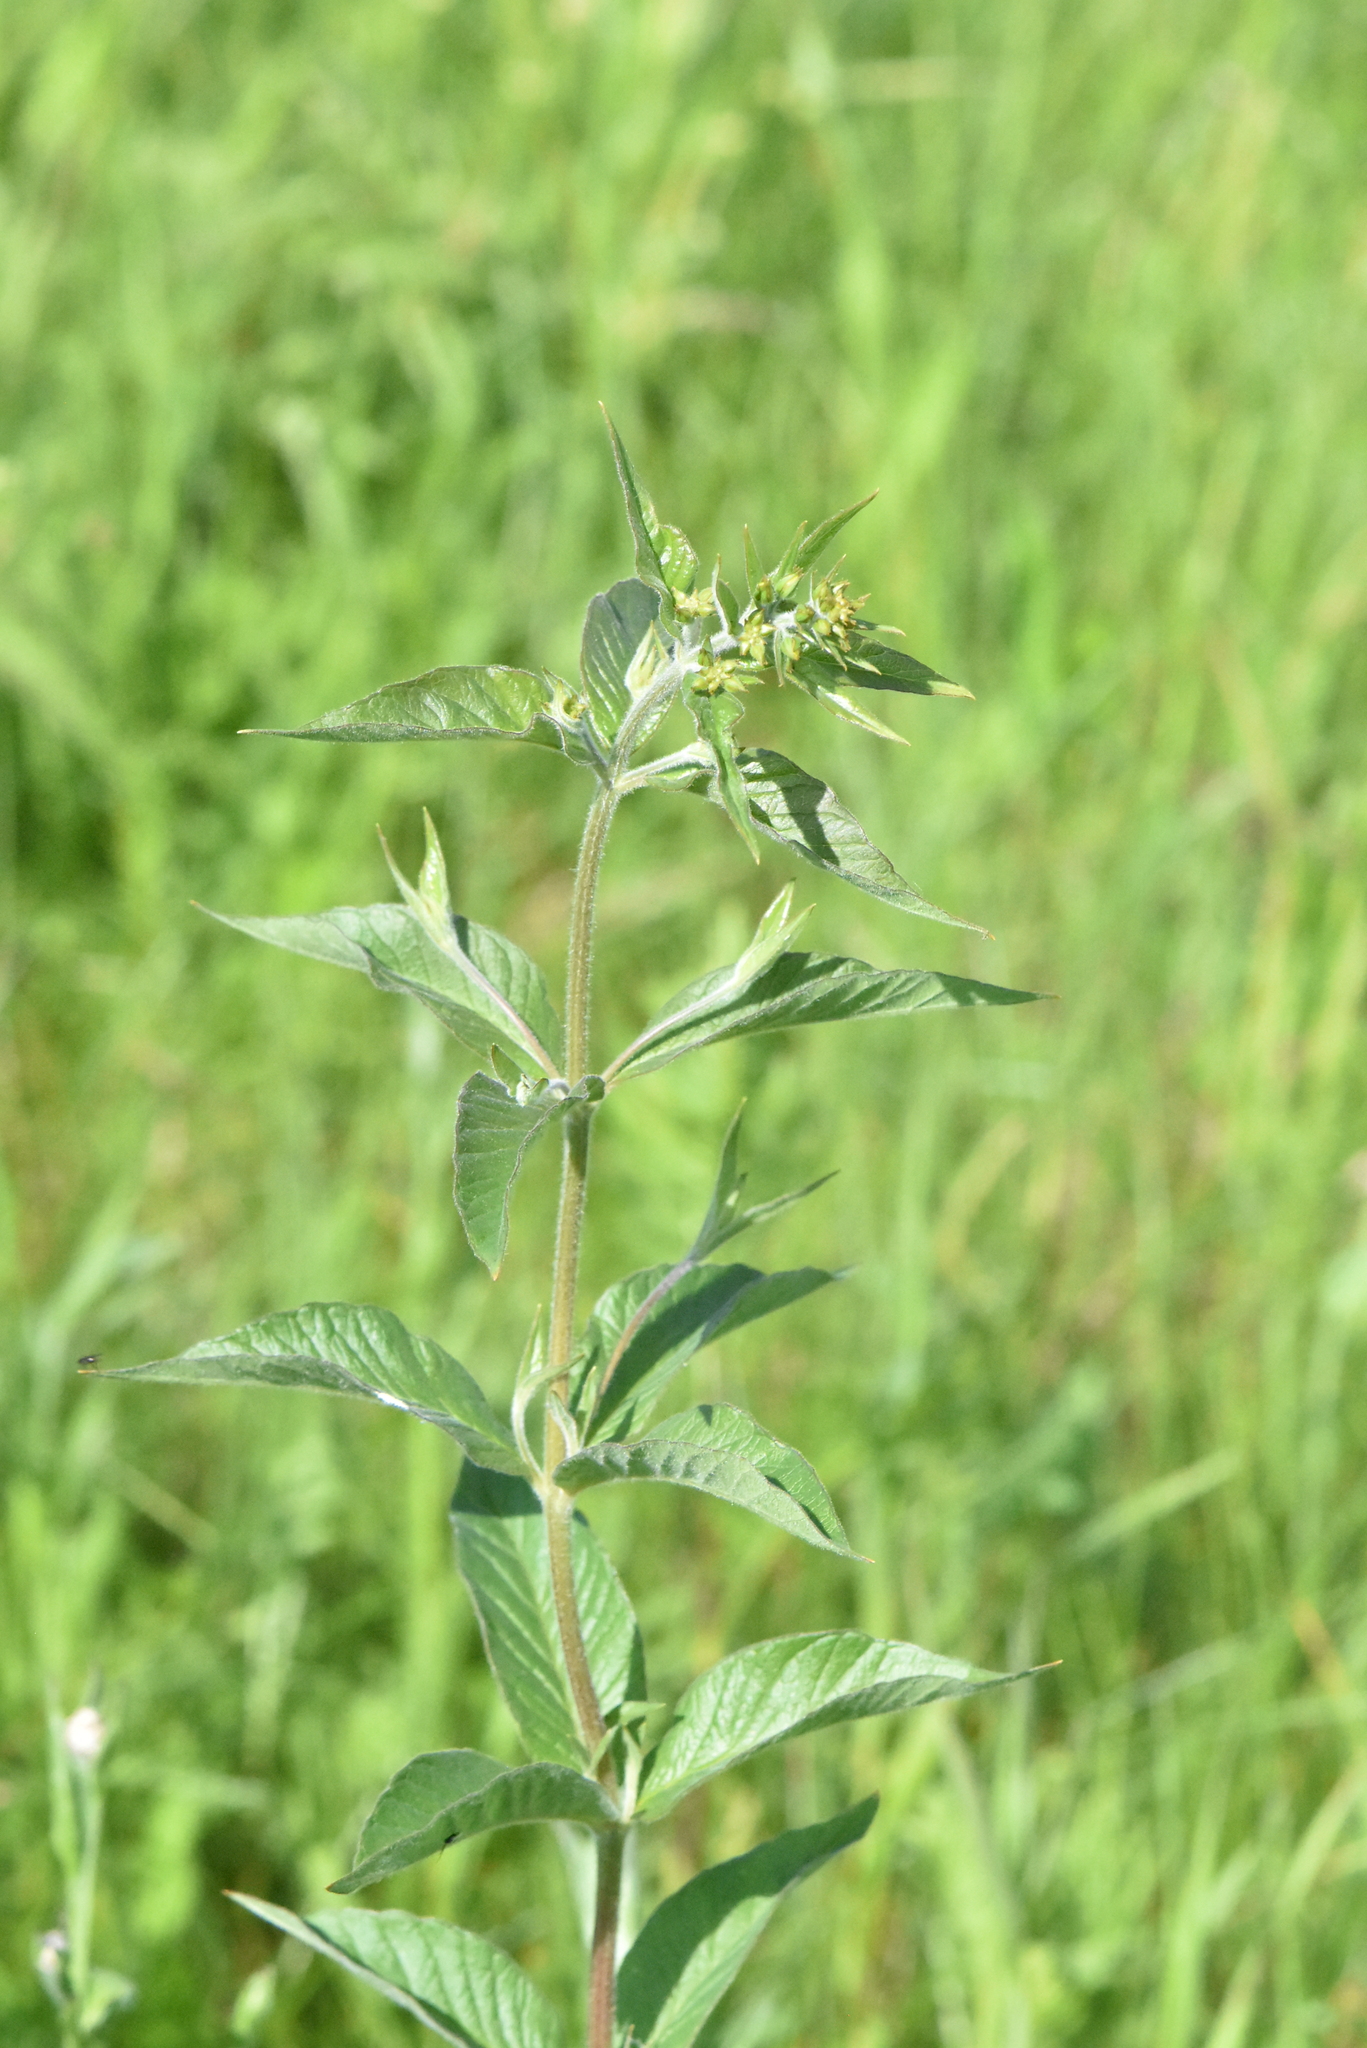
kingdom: Plantae
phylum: Tracheophyta
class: Magnoliopsida
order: Ericales
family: Primulaceae
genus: Lysimachia
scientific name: Lysimachia vulgaris
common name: Yellow loosestrife
